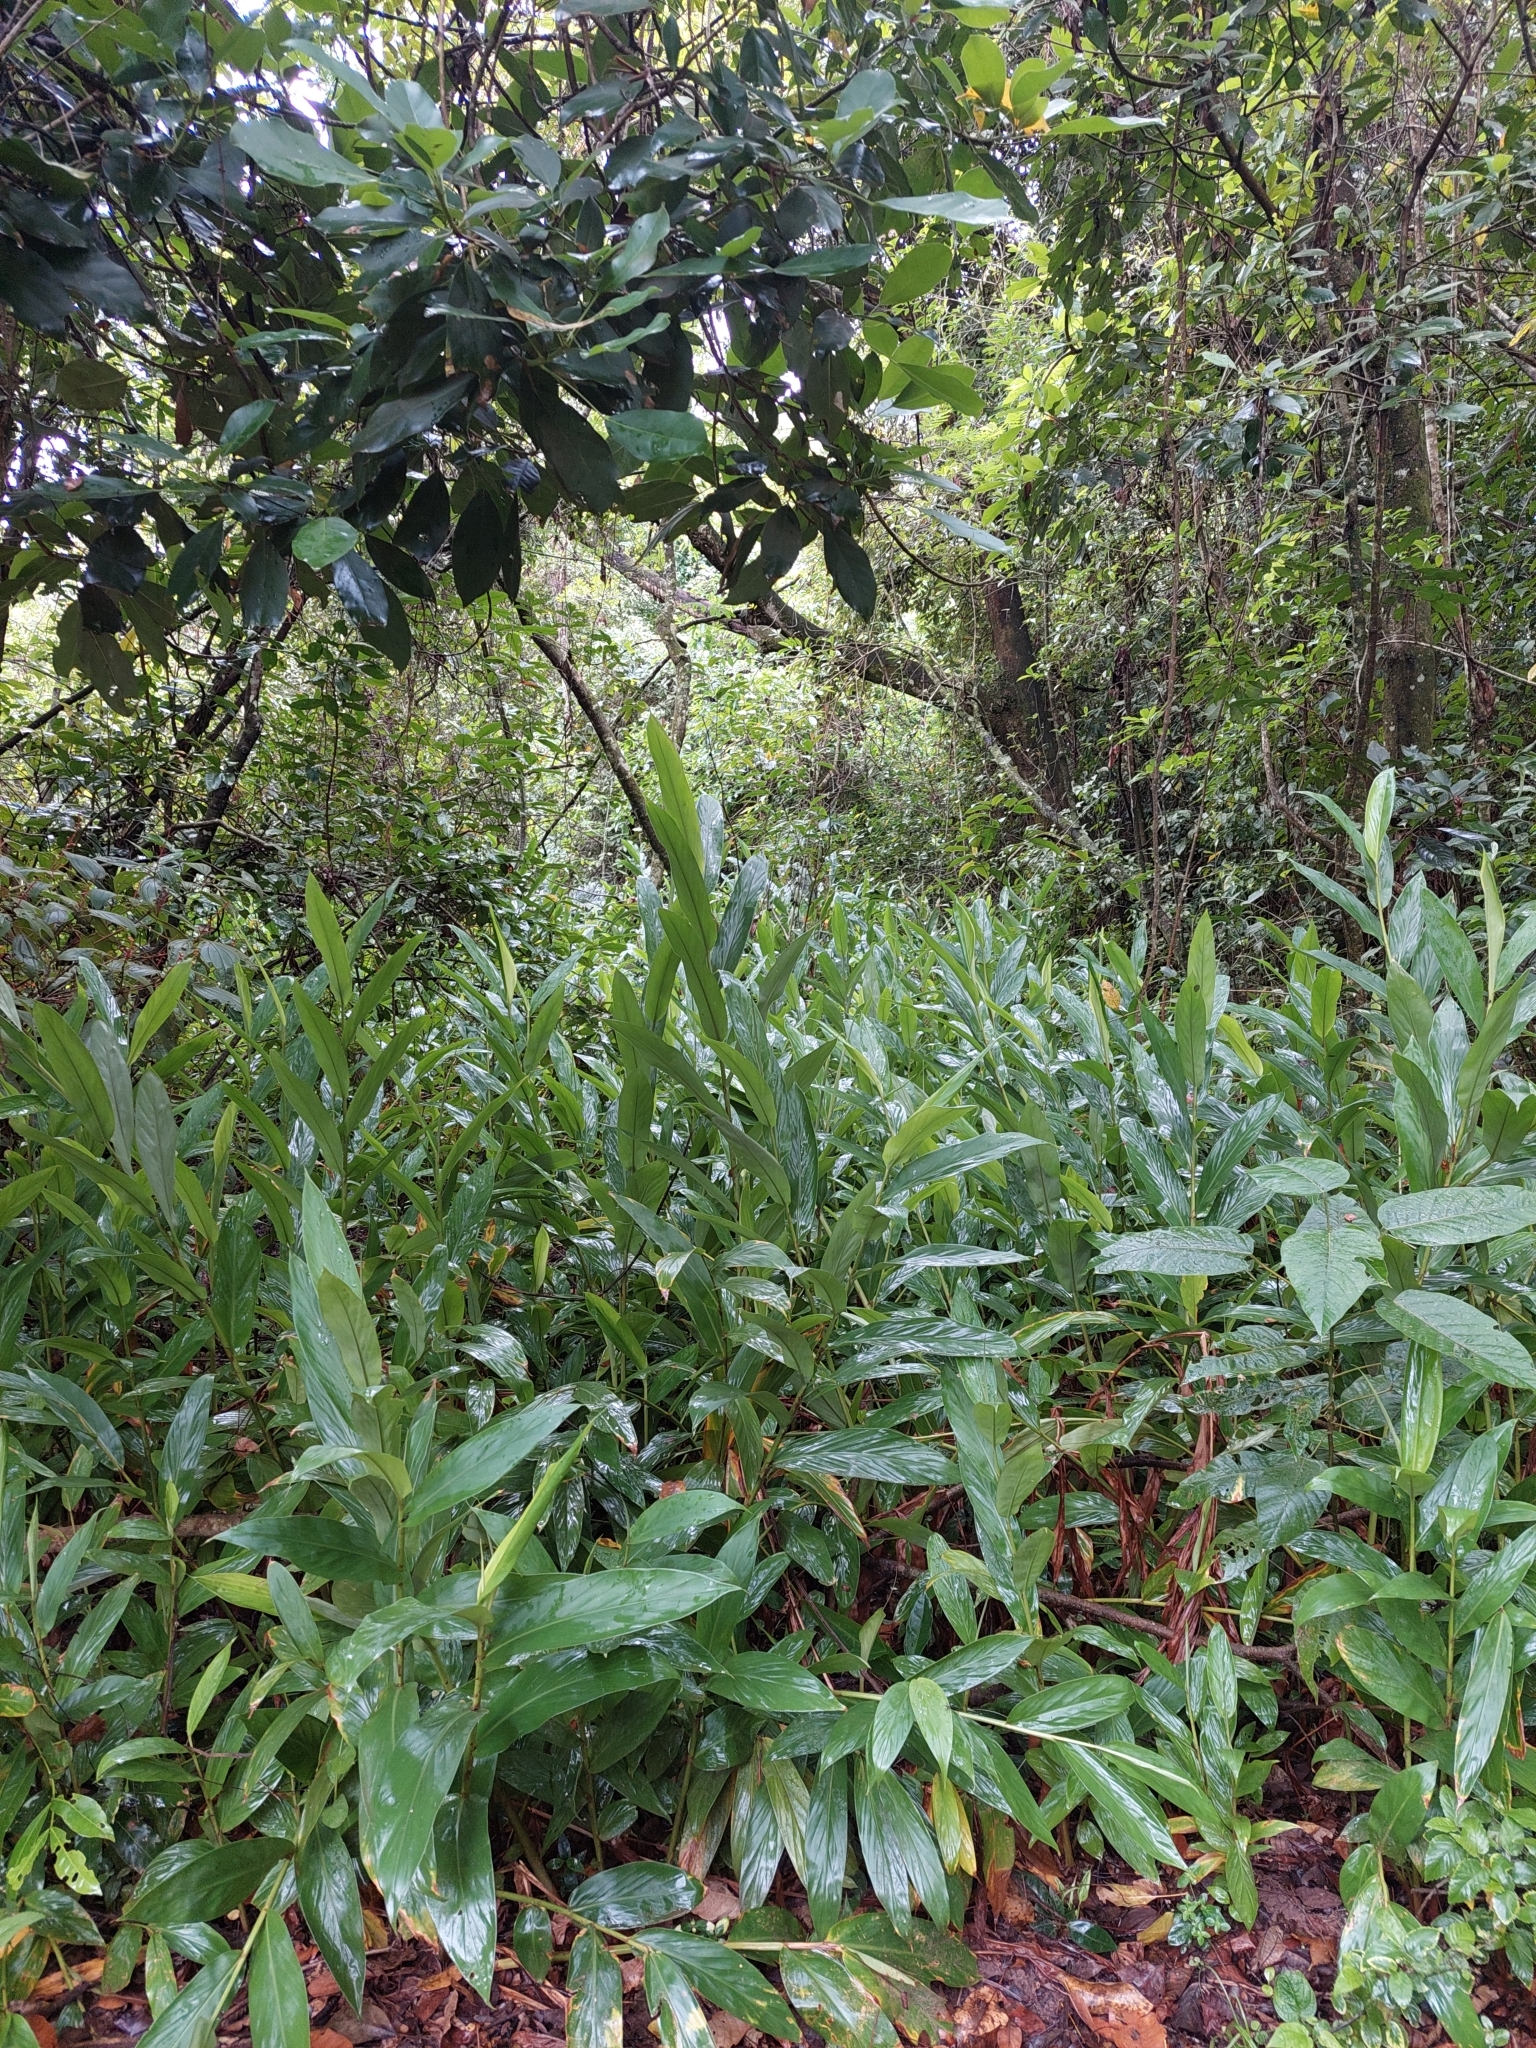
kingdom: Plantae
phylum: Tracheophyta
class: Liliopsida
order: Zingiberales
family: Zingiberaceae
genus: Hedychium
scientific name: Hedychium coronarium
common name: White garland-lily
